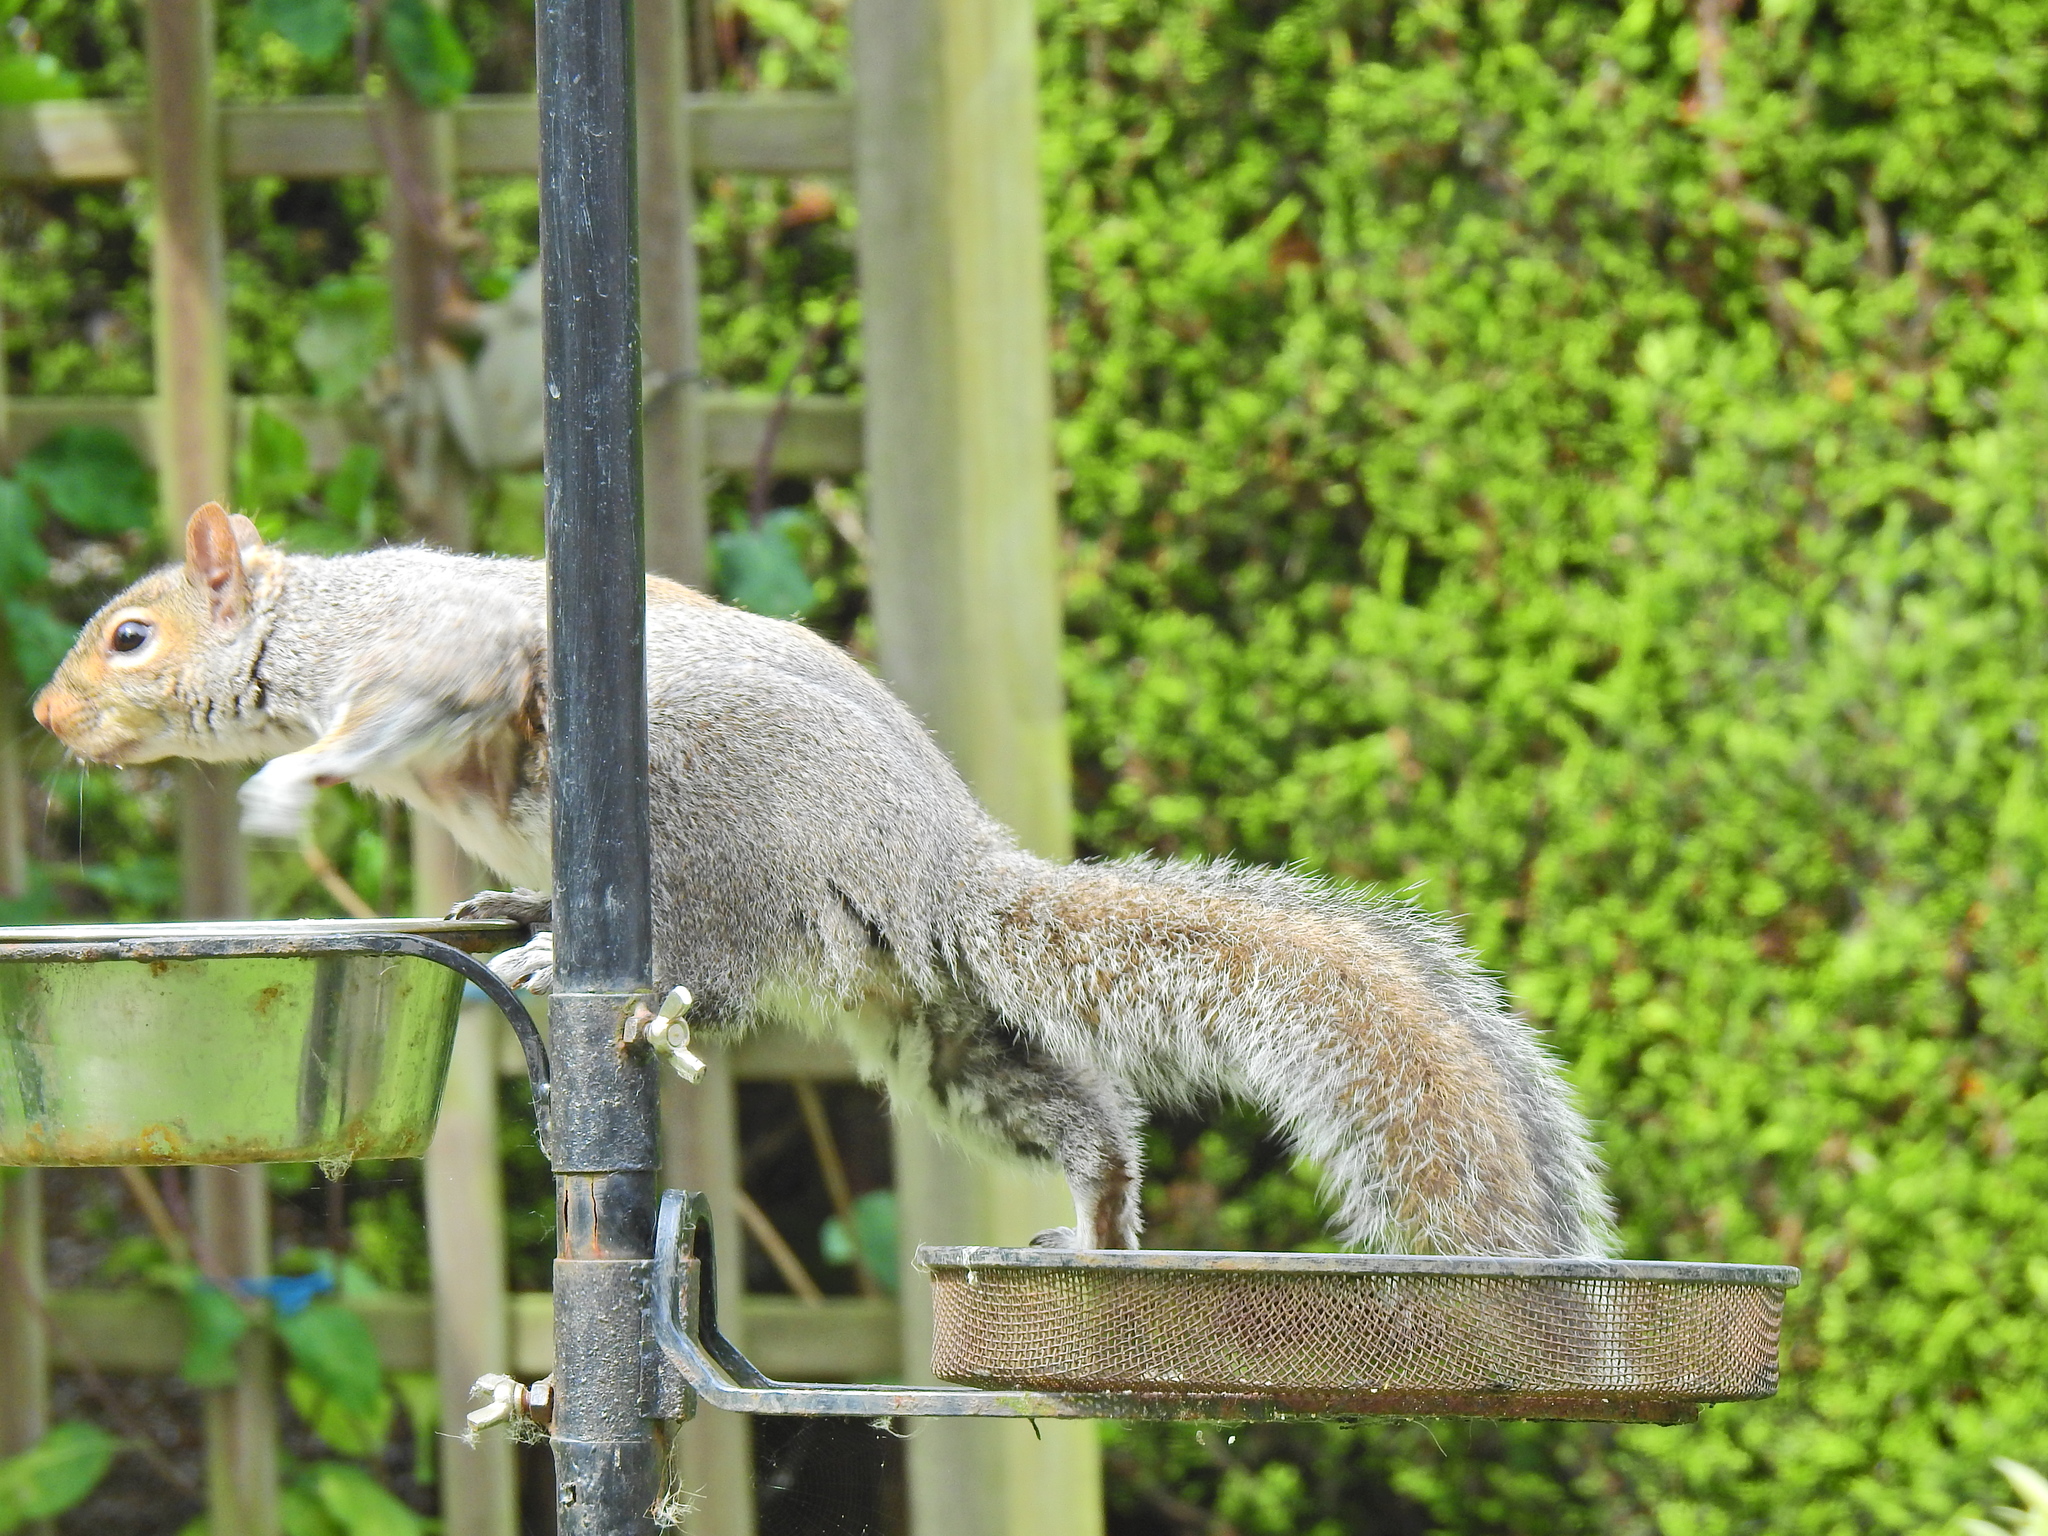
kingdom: Animalia
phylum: Chordata
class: Mammalia
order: Rodentia
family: Sciuridae
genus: Sciurus
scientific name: Sciurus carolinensis
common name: Eastern gray squirrel
